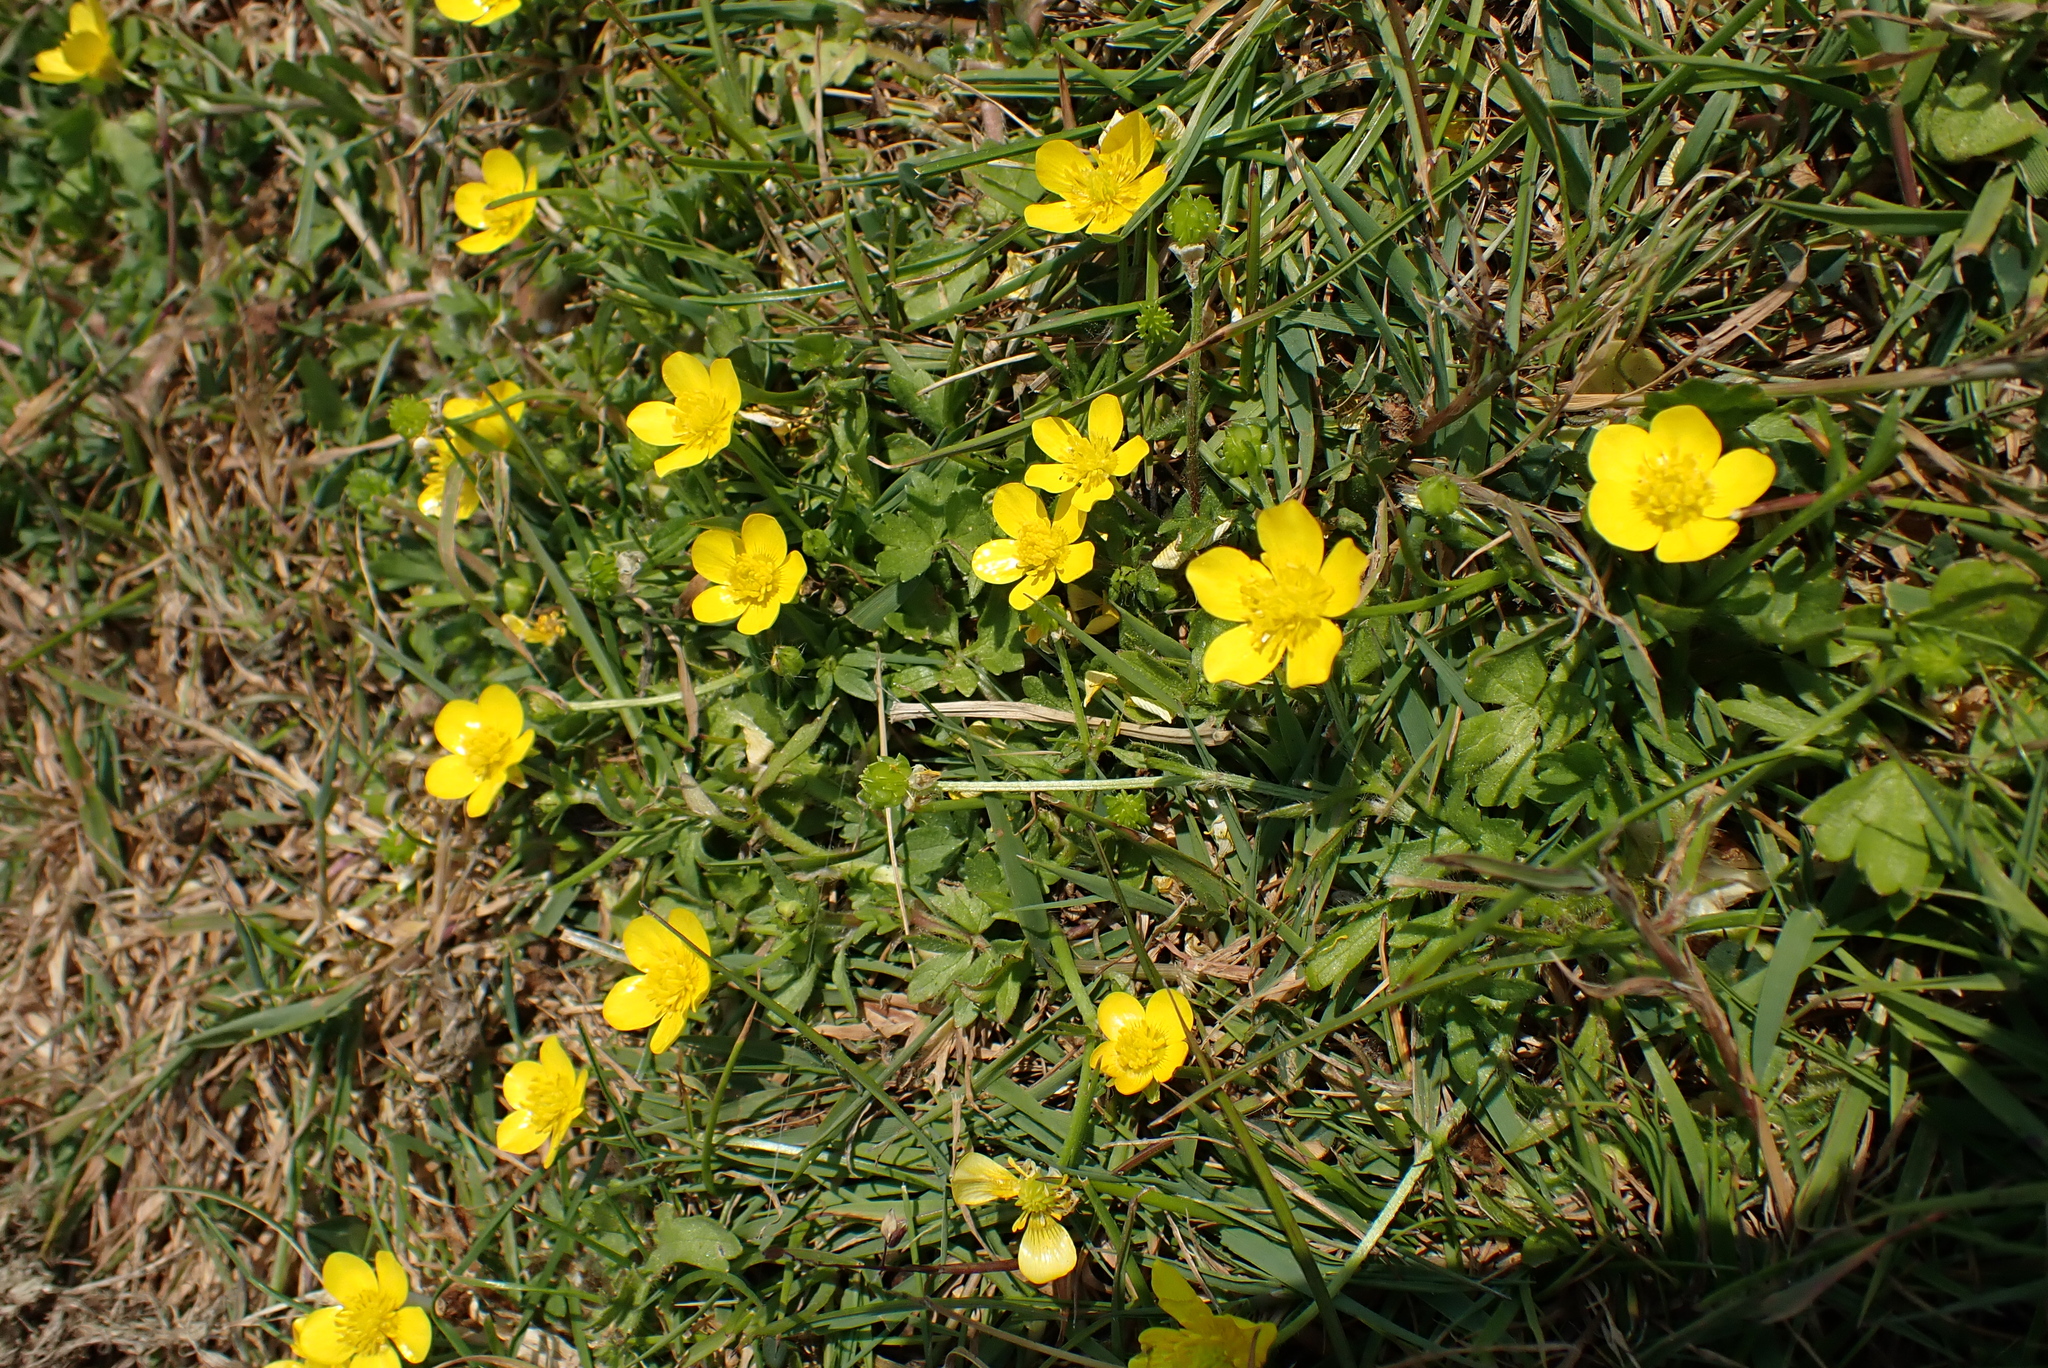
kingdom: Plantae
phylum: Tracheophyta
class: Magnoliopsida
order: Ranunculales
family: Ranunculaceae
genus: Ranunculus
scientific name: Ranunculus sardous
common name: Hairy buttercup
